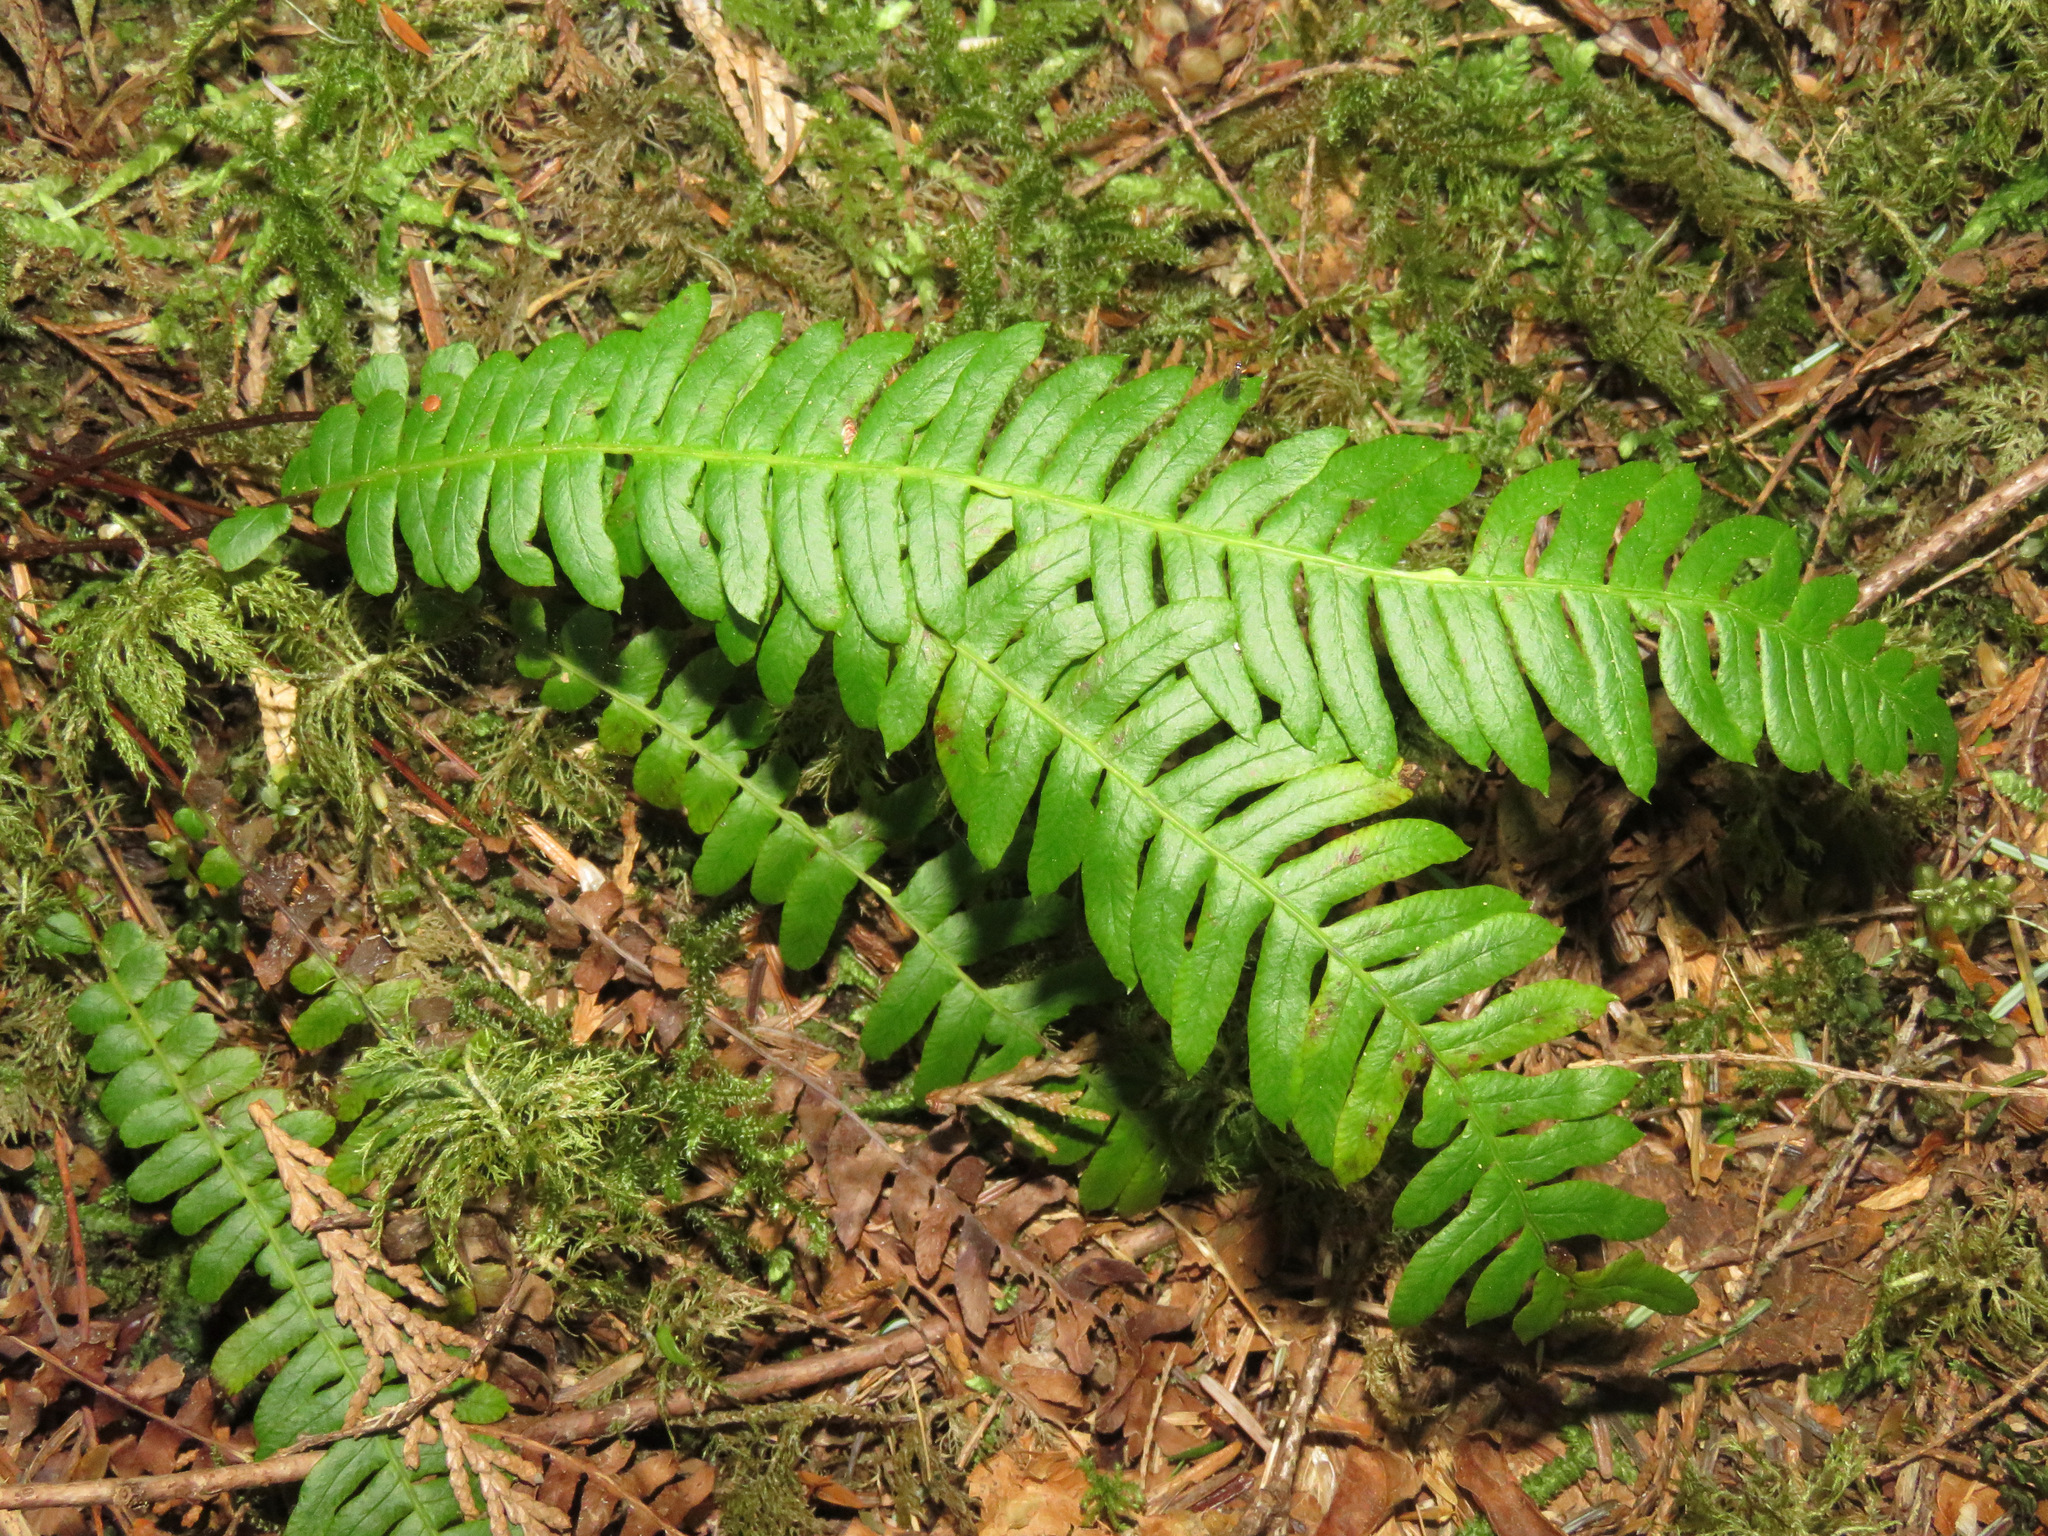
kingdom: Plantae
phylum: Tracheophyta
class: Polypodiopsida
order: Polypodiales
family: Blechnaceae
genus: Struthiopteris
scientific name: Struthiopteris spicant
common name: Deer fern
